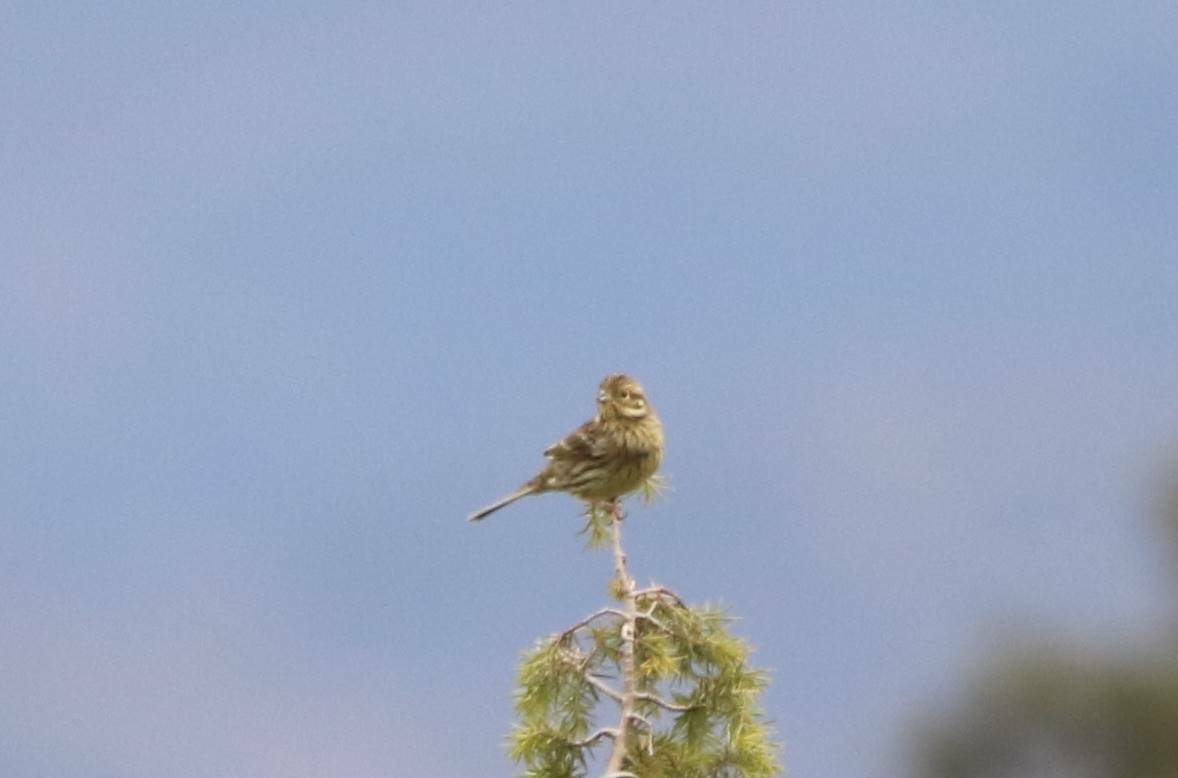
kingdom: Animalia
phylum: Chordata
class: Aves
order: Passeriformes
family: Emberizidae
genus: Emberiza
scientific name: Emberiza cirlus
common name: Cirl bunting
